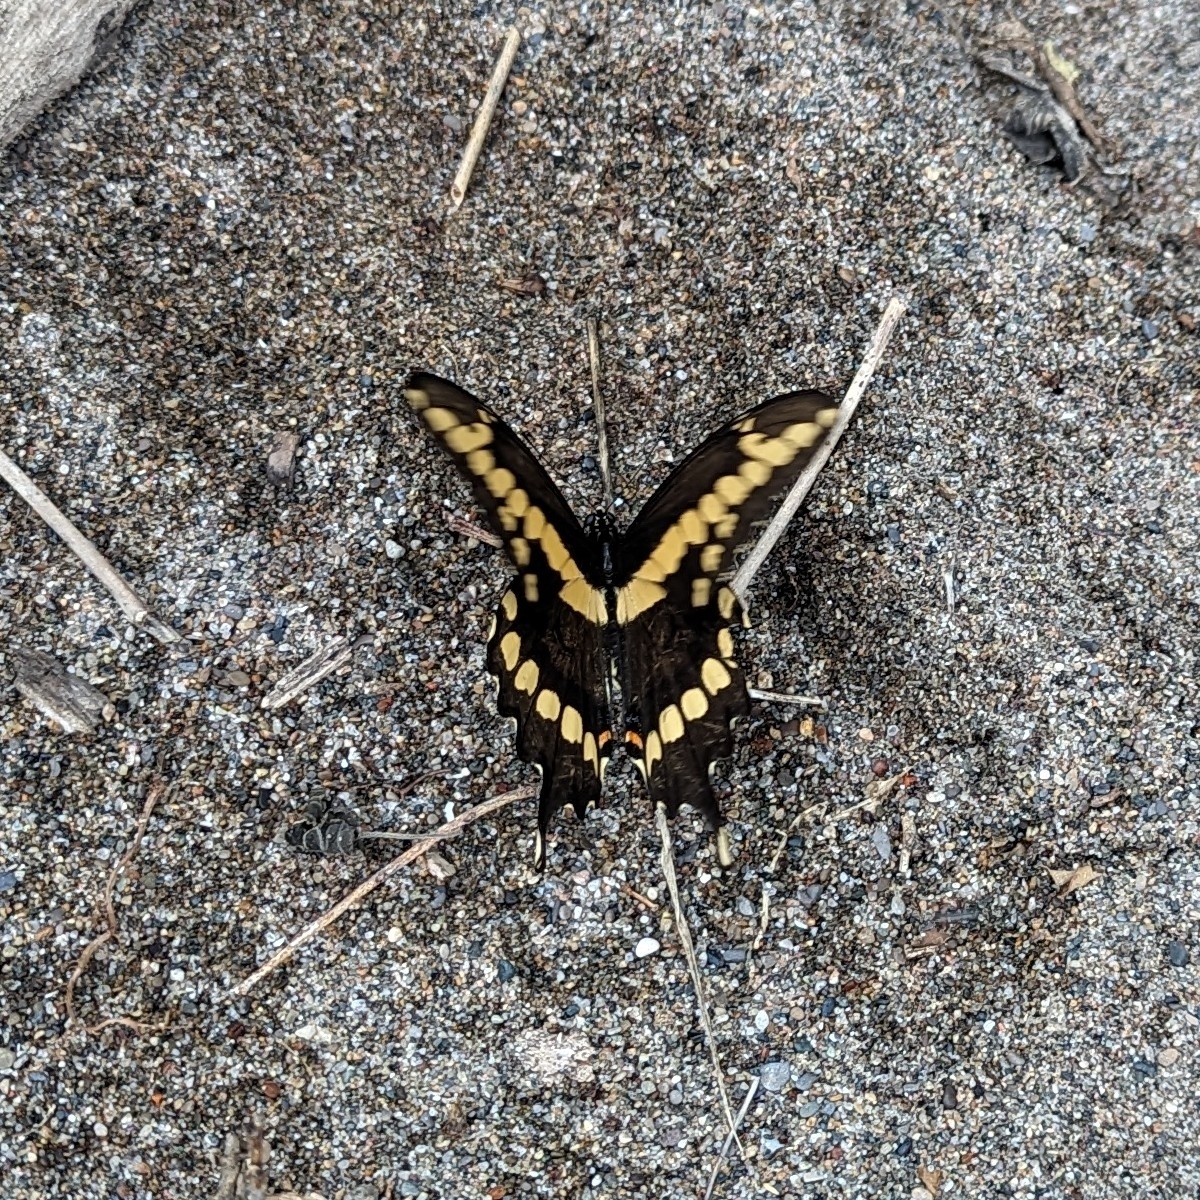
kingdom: Animalia
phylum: Arthropoda
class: Insecta
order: Lepidoptera
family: Papilionidae
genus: Papilio
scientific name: Papilio cresphontes
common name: Giant swallowtail
